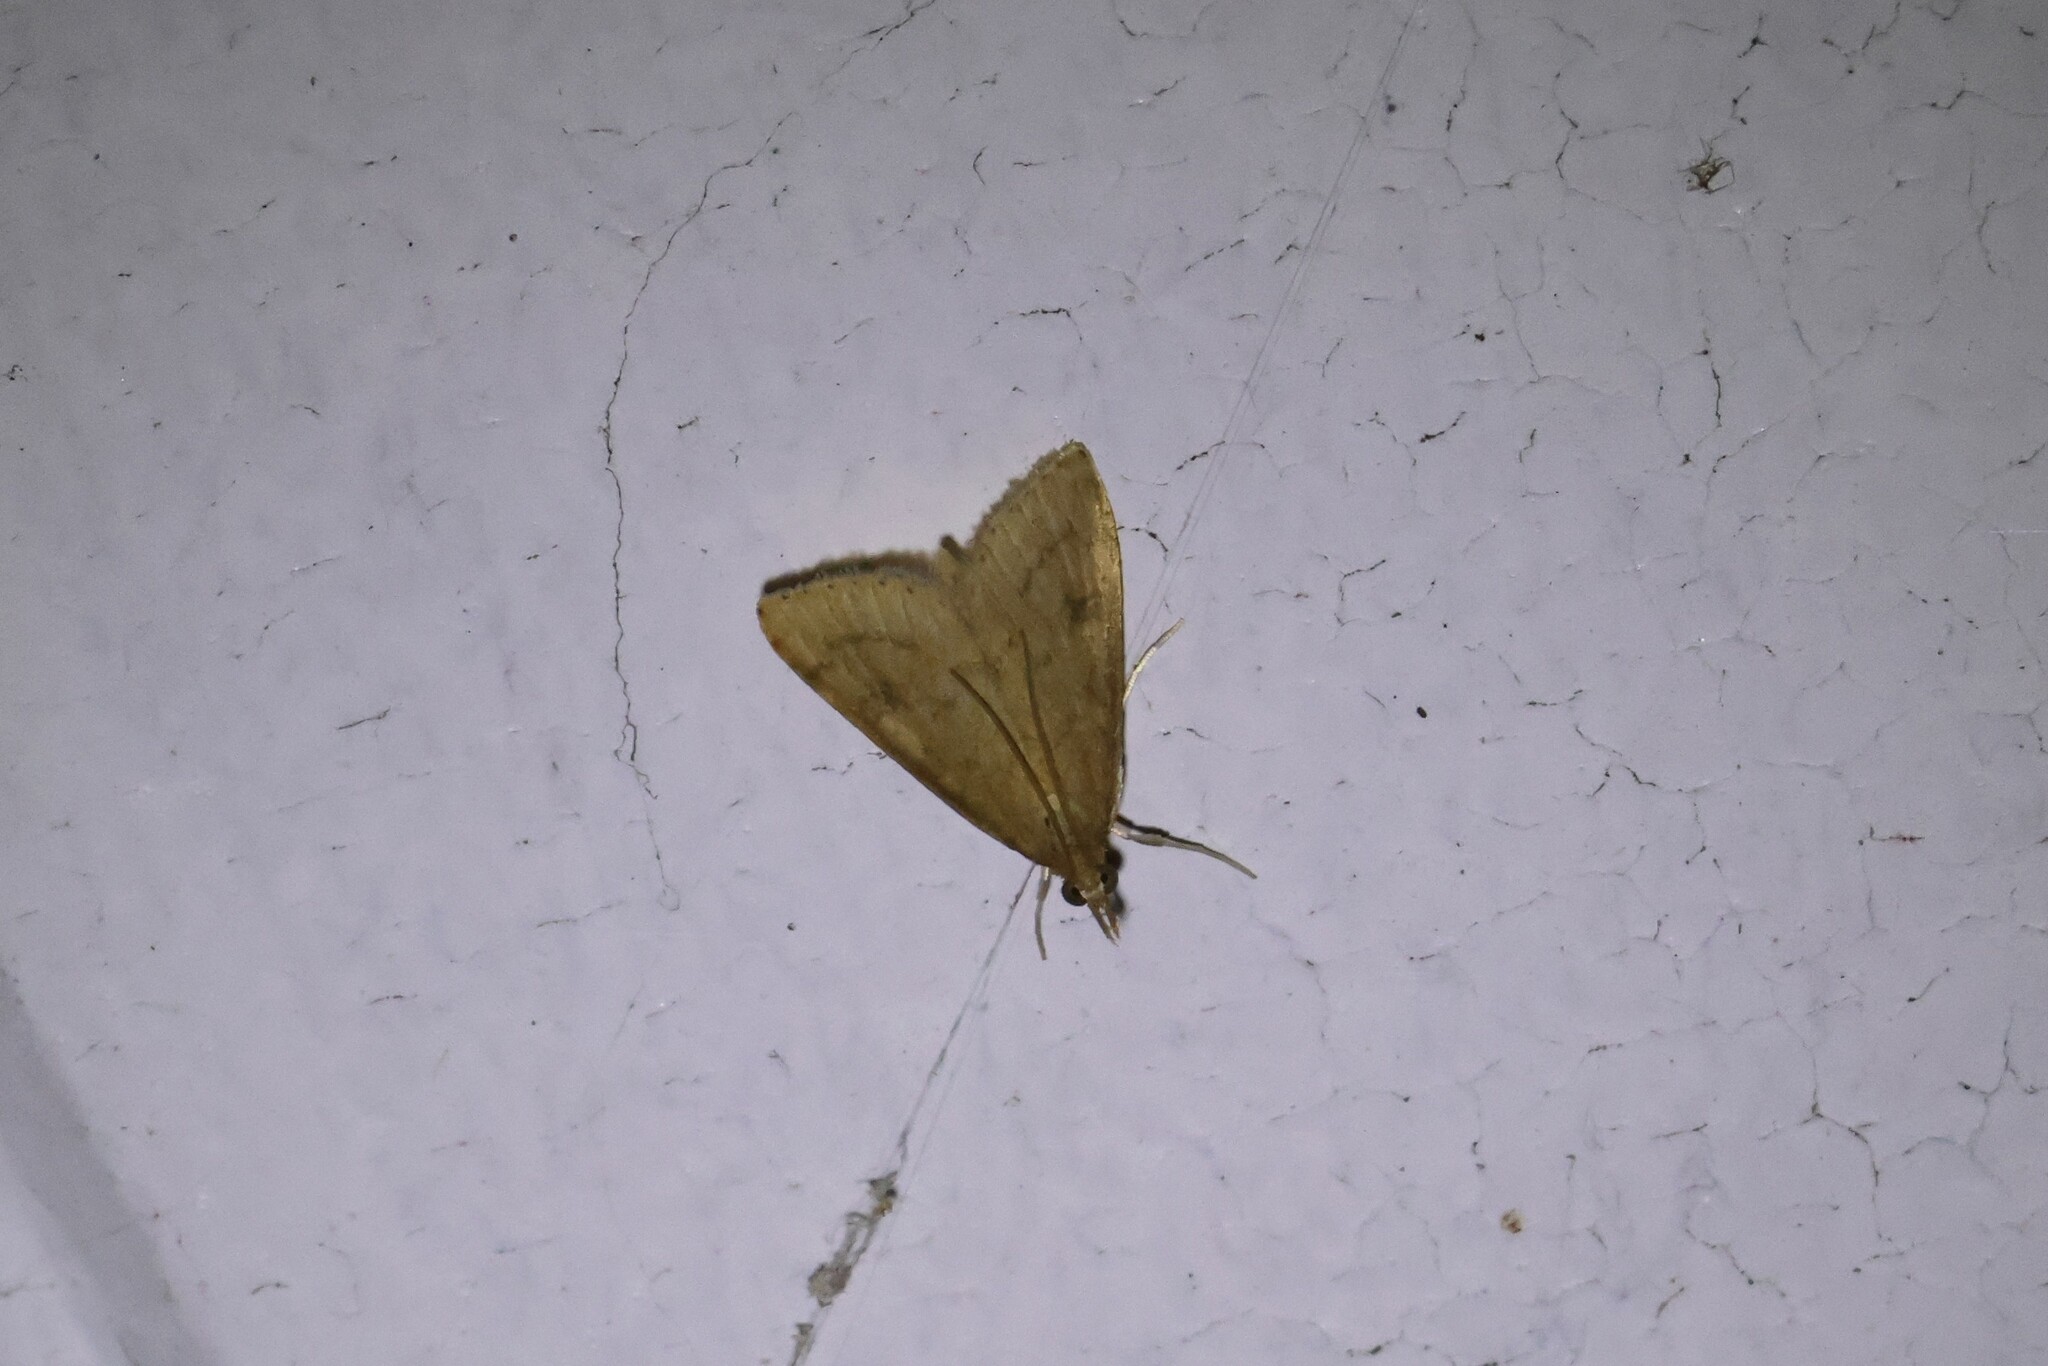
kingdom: Animalia
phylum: Arthropoda
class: Insecta
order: Lepidoptera
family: Crambidae
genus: Udea
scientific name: Udea rubigalis
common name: Celery leaftier moth
